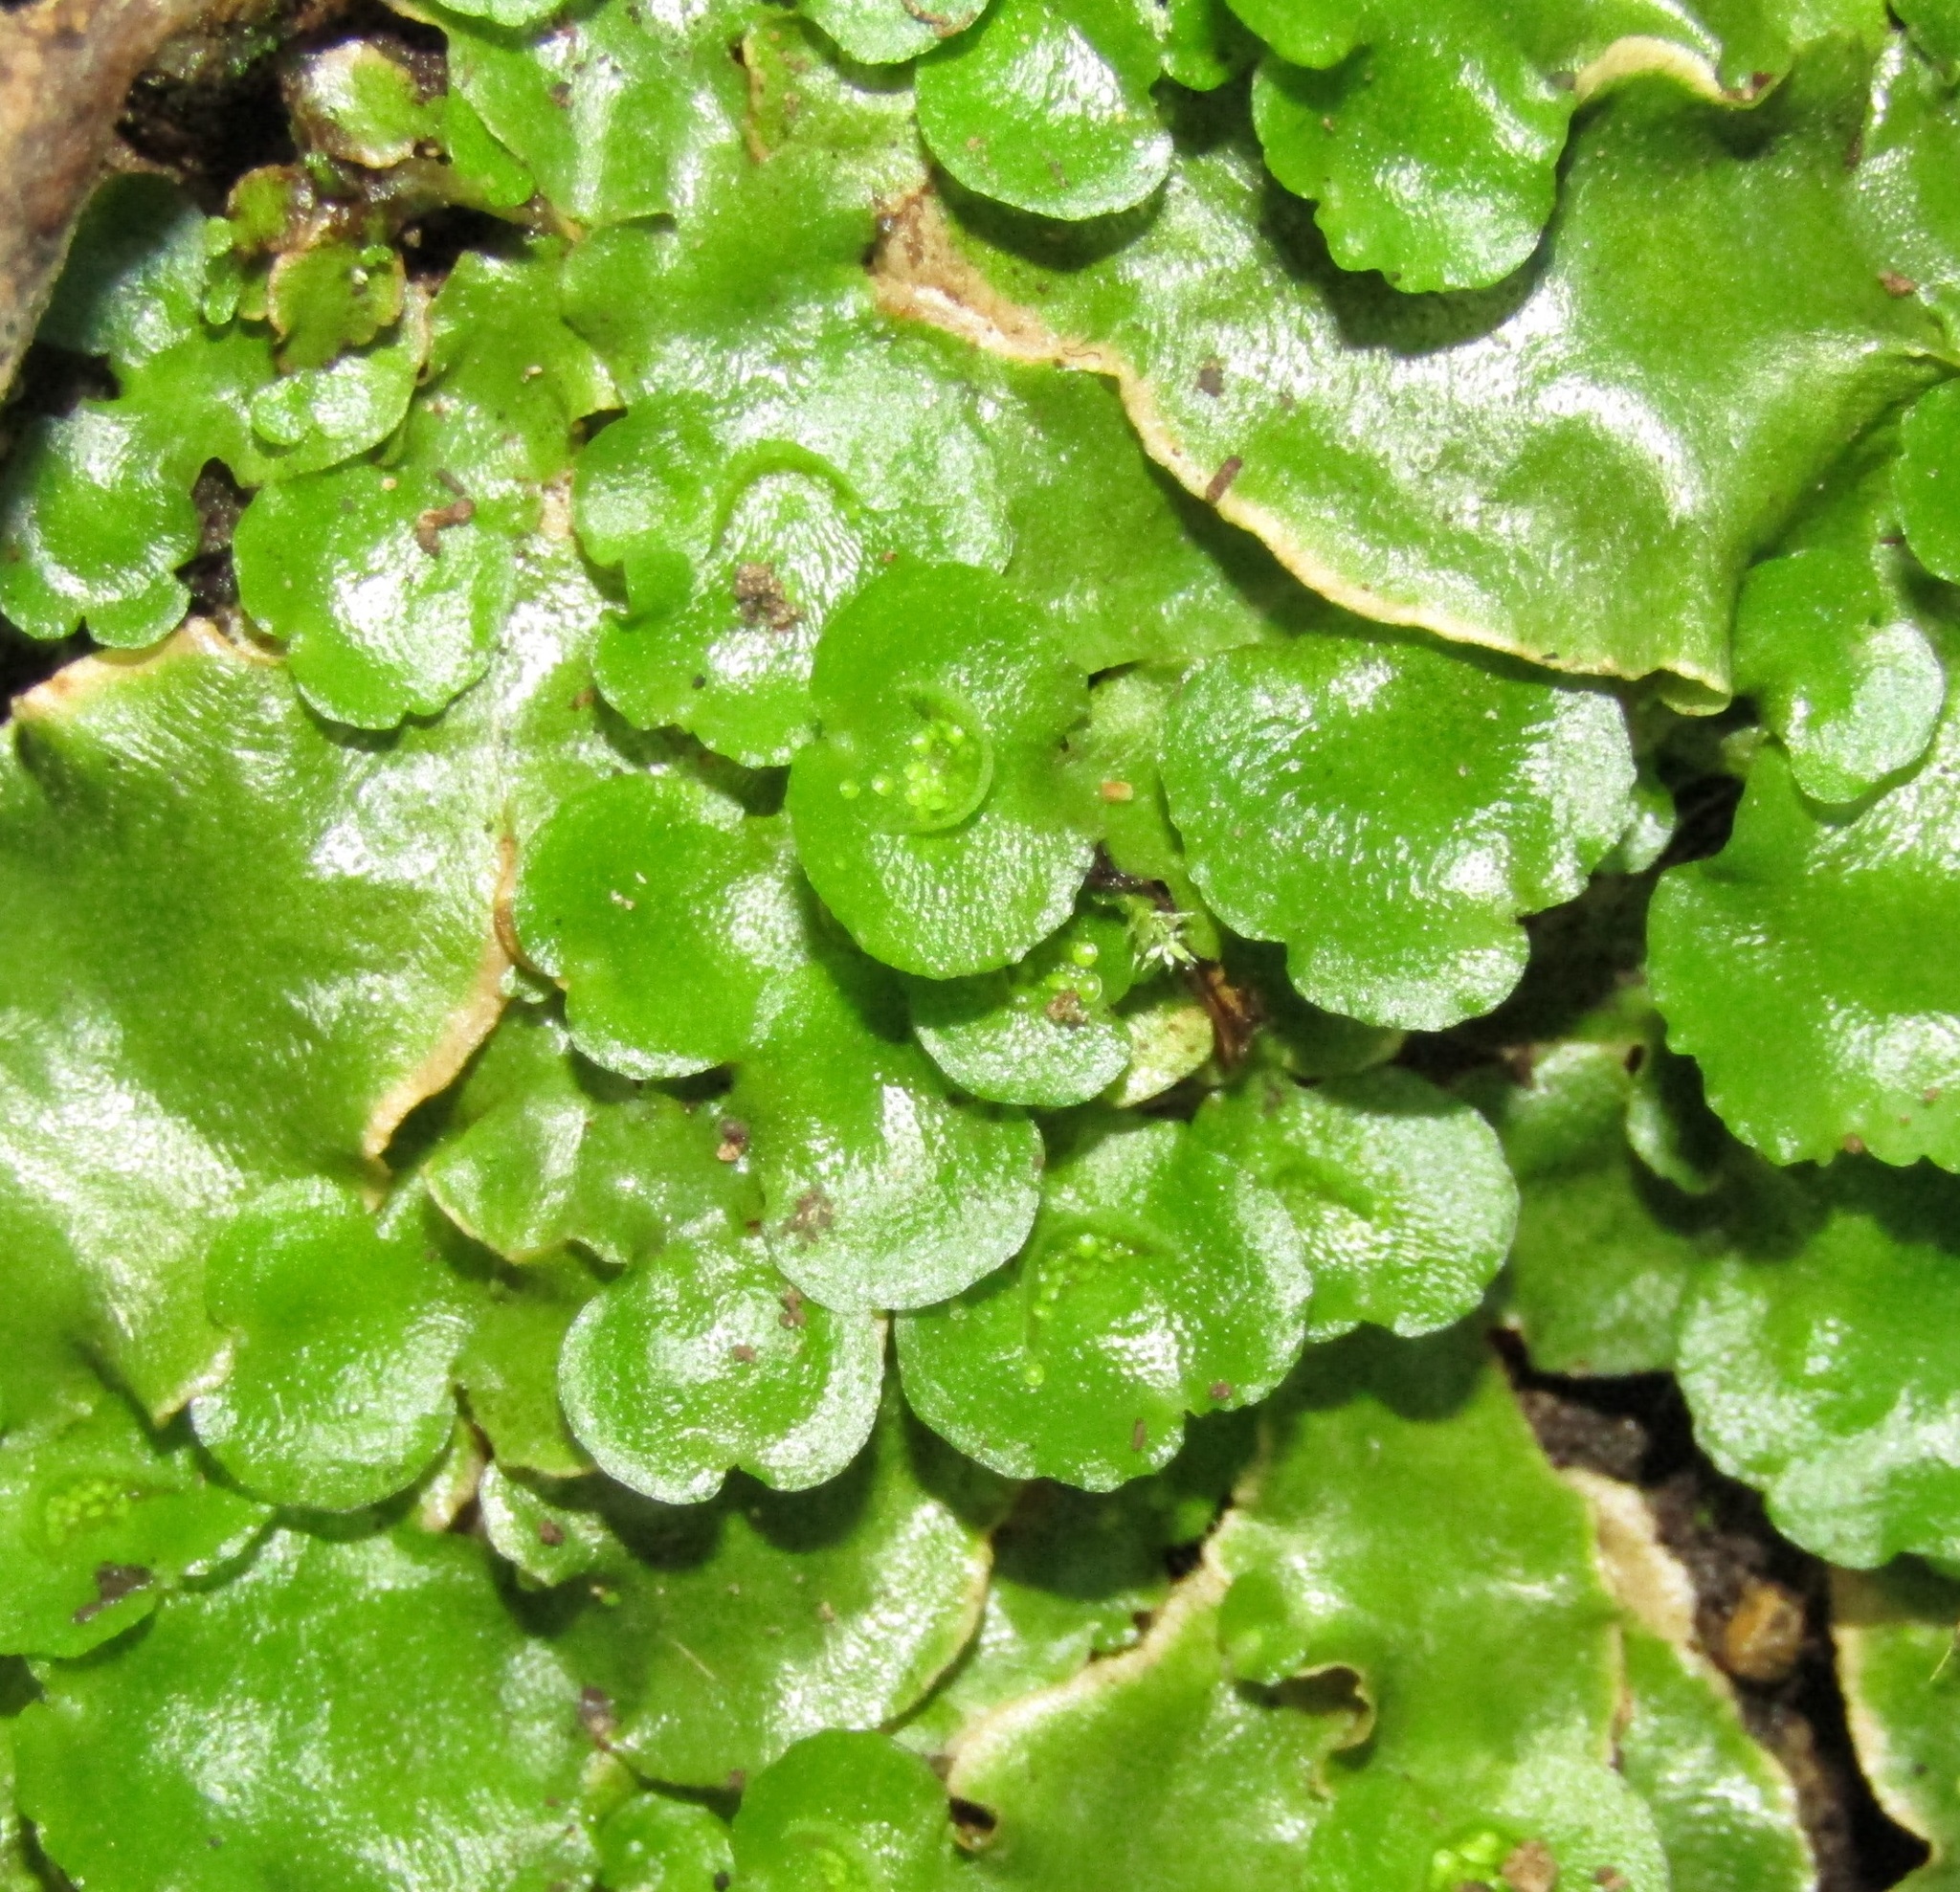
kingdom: Plantae
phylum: Marchantiophyta
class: Marchantiopsida
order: Lunulariales
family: Lunulariaceae
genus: Lunularia
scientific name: Lunularia cruciata
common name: Crescent-cup liverwort
